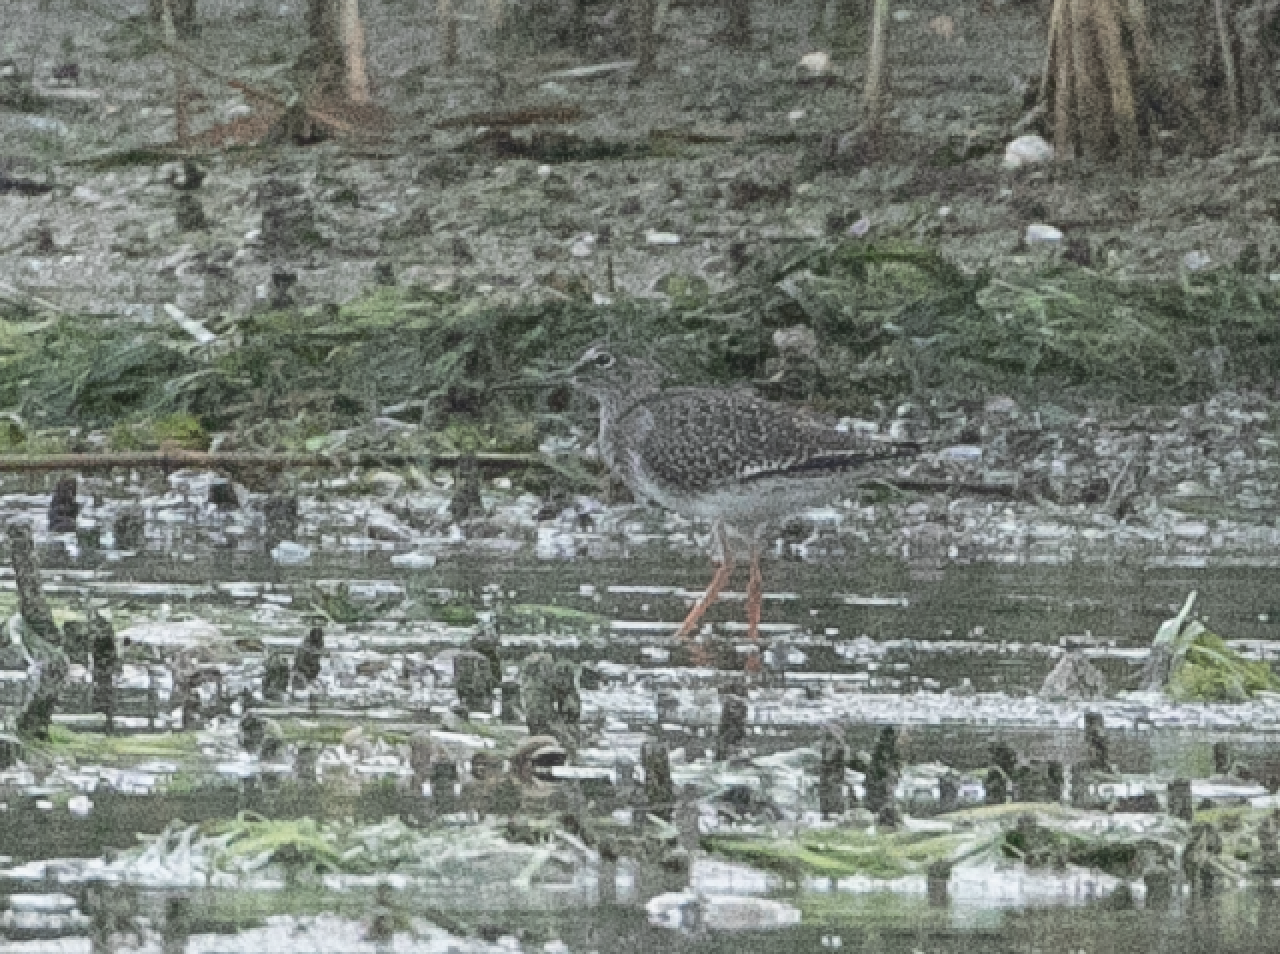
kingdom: Animalia
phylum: Chordata
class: Aves
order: Charadriiformes
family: Scolopacidae
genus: Tringa
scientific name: Tringa totanus
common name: Common redshank
